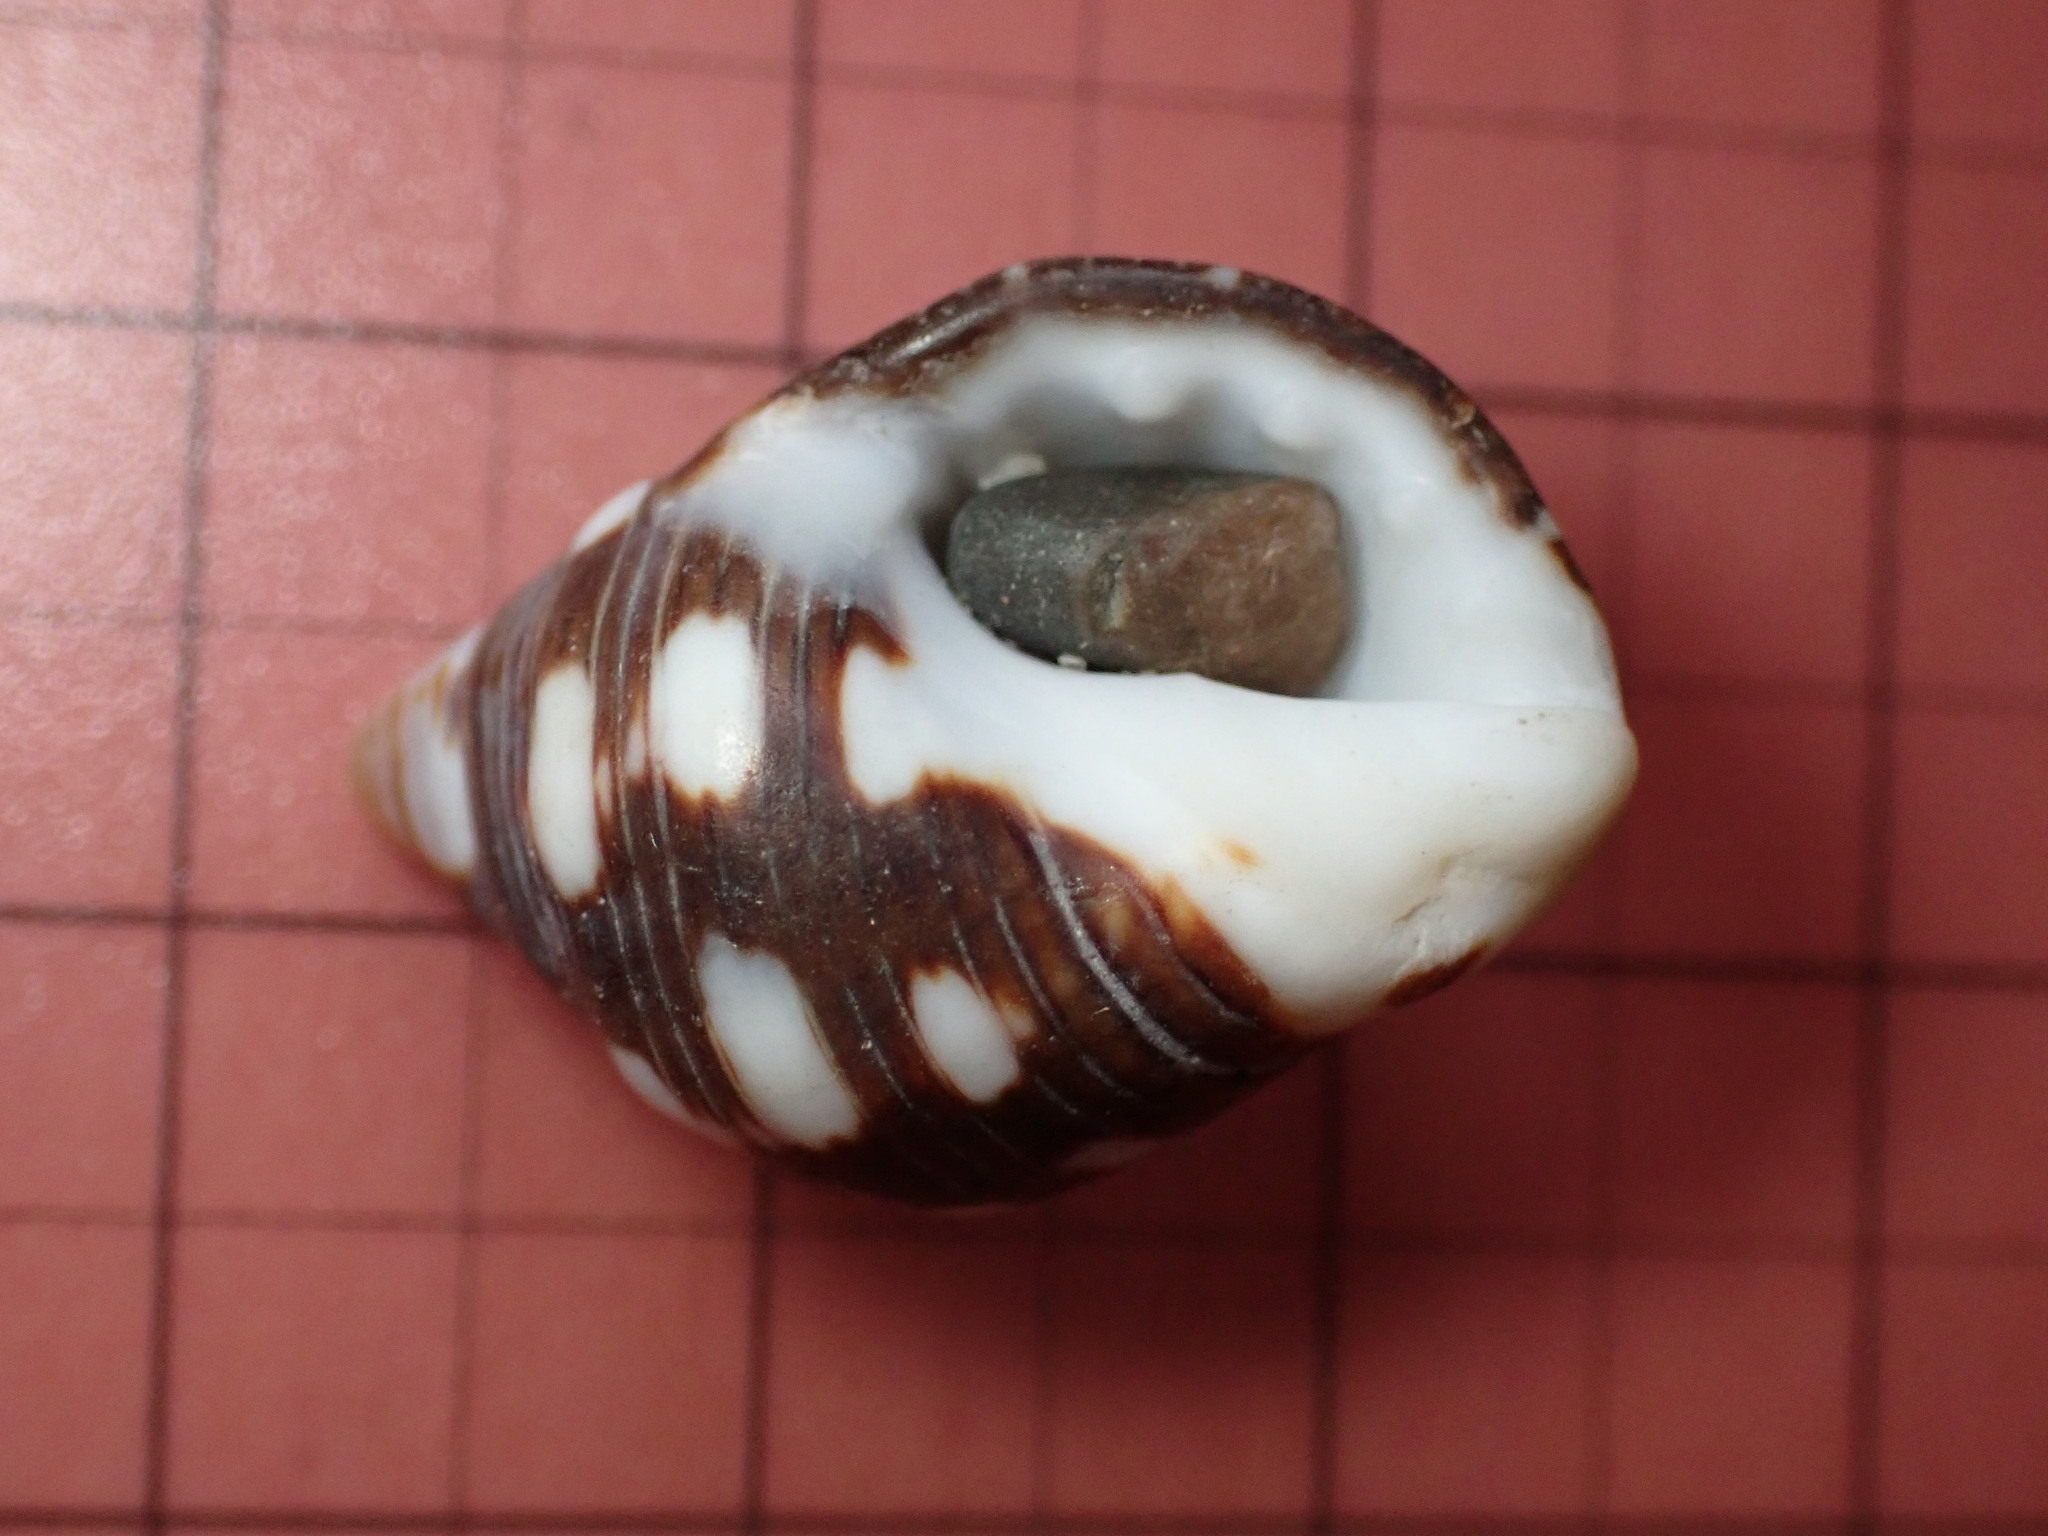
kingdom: Animalia
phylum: Mollusca
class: Gastropoda
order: Neogastropoda
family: Muricidae
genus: Acanthais
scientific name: Acanthais brevidentata
